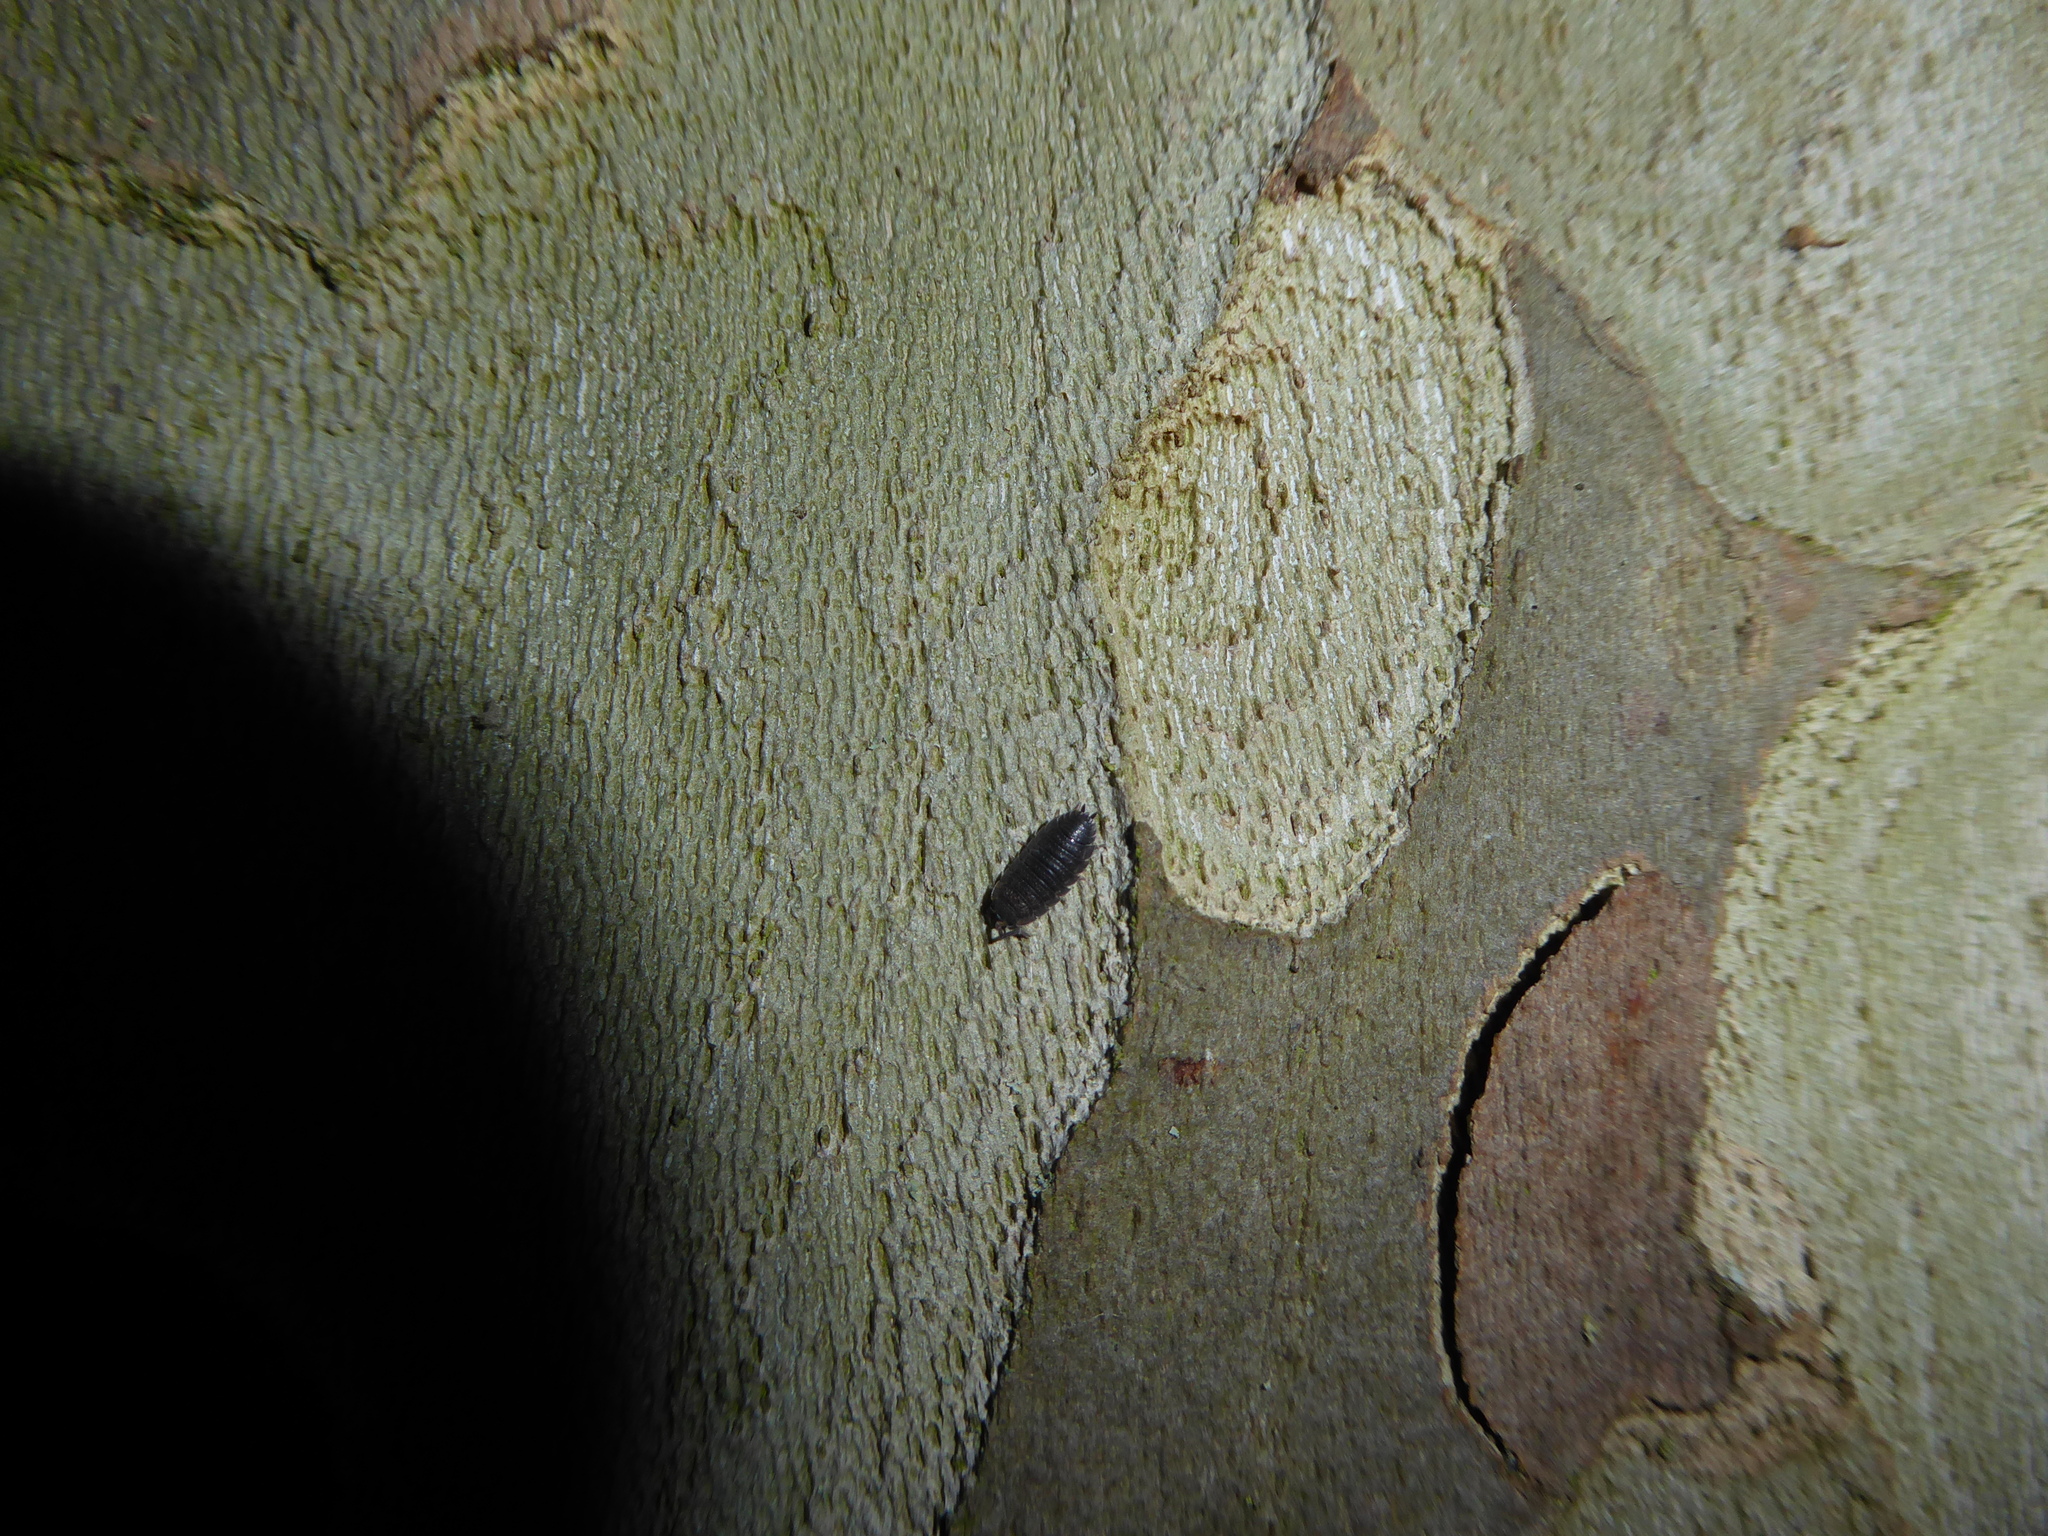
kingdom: Animalia
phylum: Arthropoda
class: Malacostraca
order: Isopoda
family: Porcellionidae
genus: Porcellio
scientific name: Porcellio scaber
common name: Common rough woodlouse
